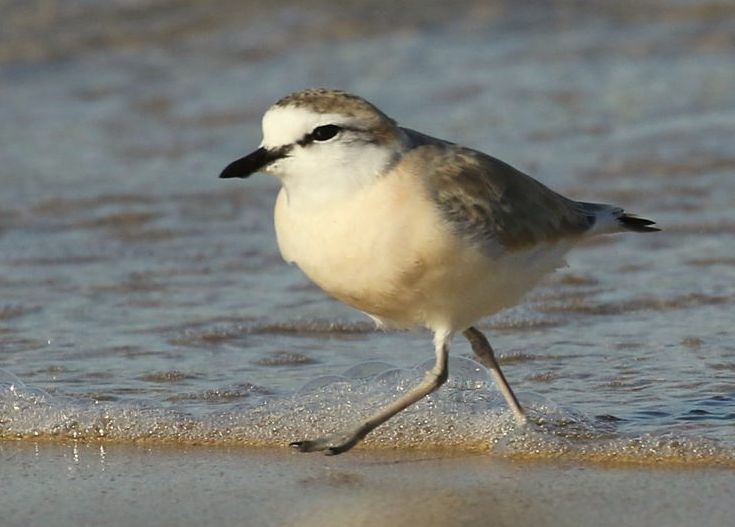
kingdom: Animalia
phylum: Chordata
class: Aves
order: Charadriiformes
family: Charadriidae
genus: Anarhynchus
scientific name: Anarhynchus
